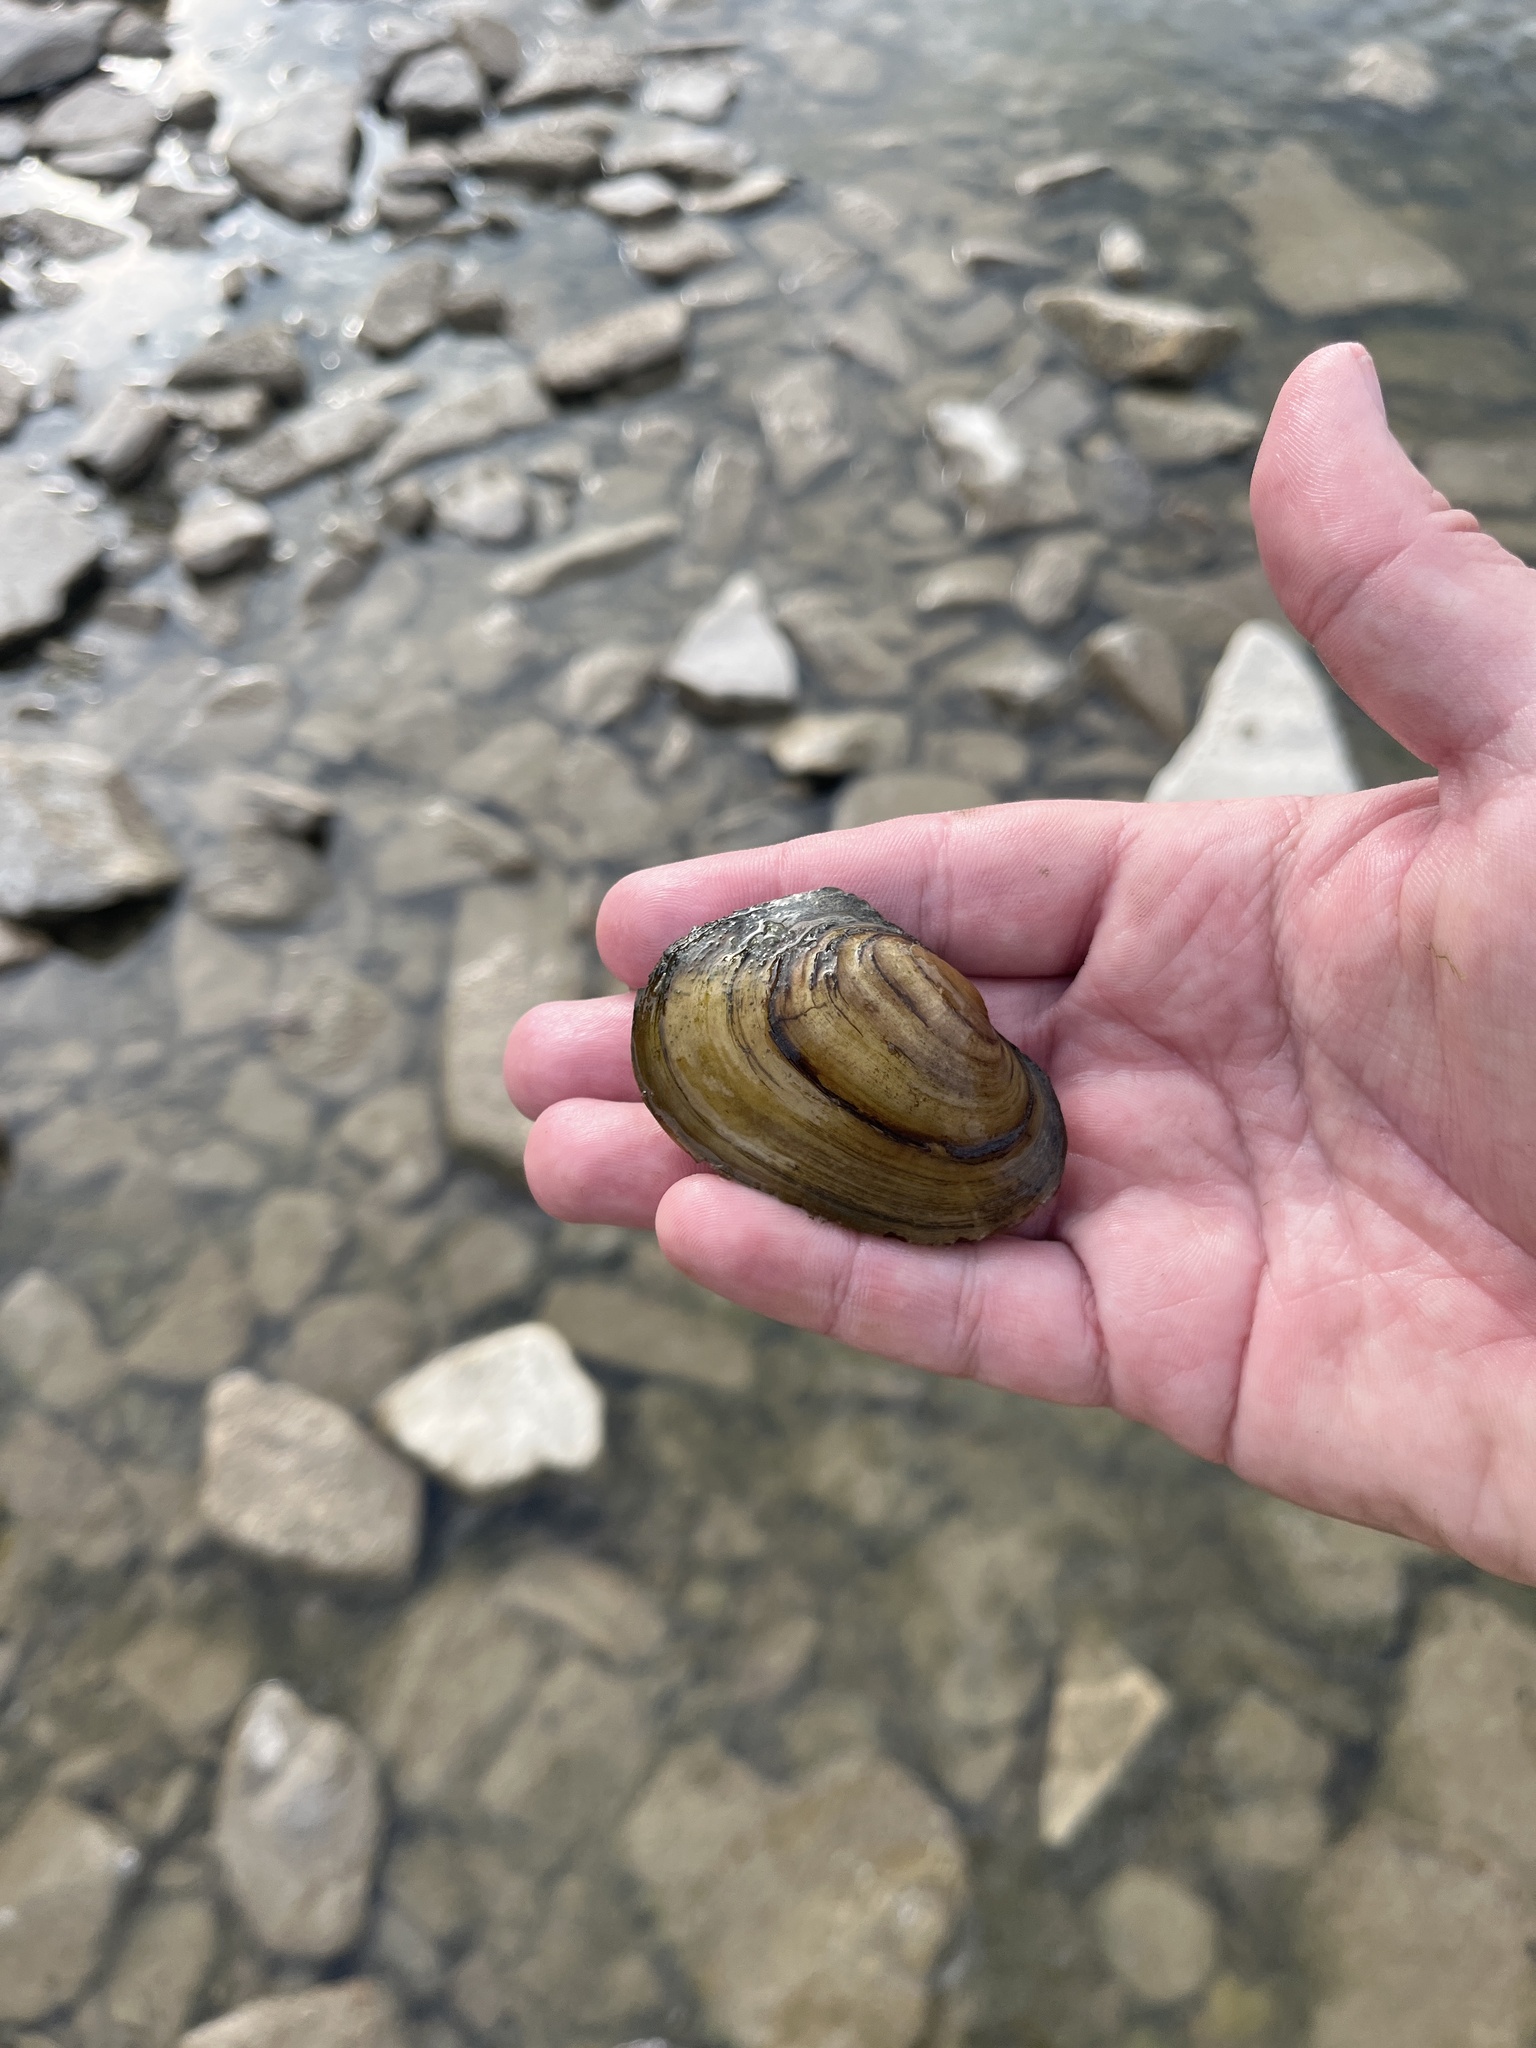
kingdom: Animalia
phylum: Mollusca
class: Bivalvia
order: Unionida
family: Unionidae
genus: Potamilus
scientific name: Potamilus fragilis
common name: Fragile papershell
